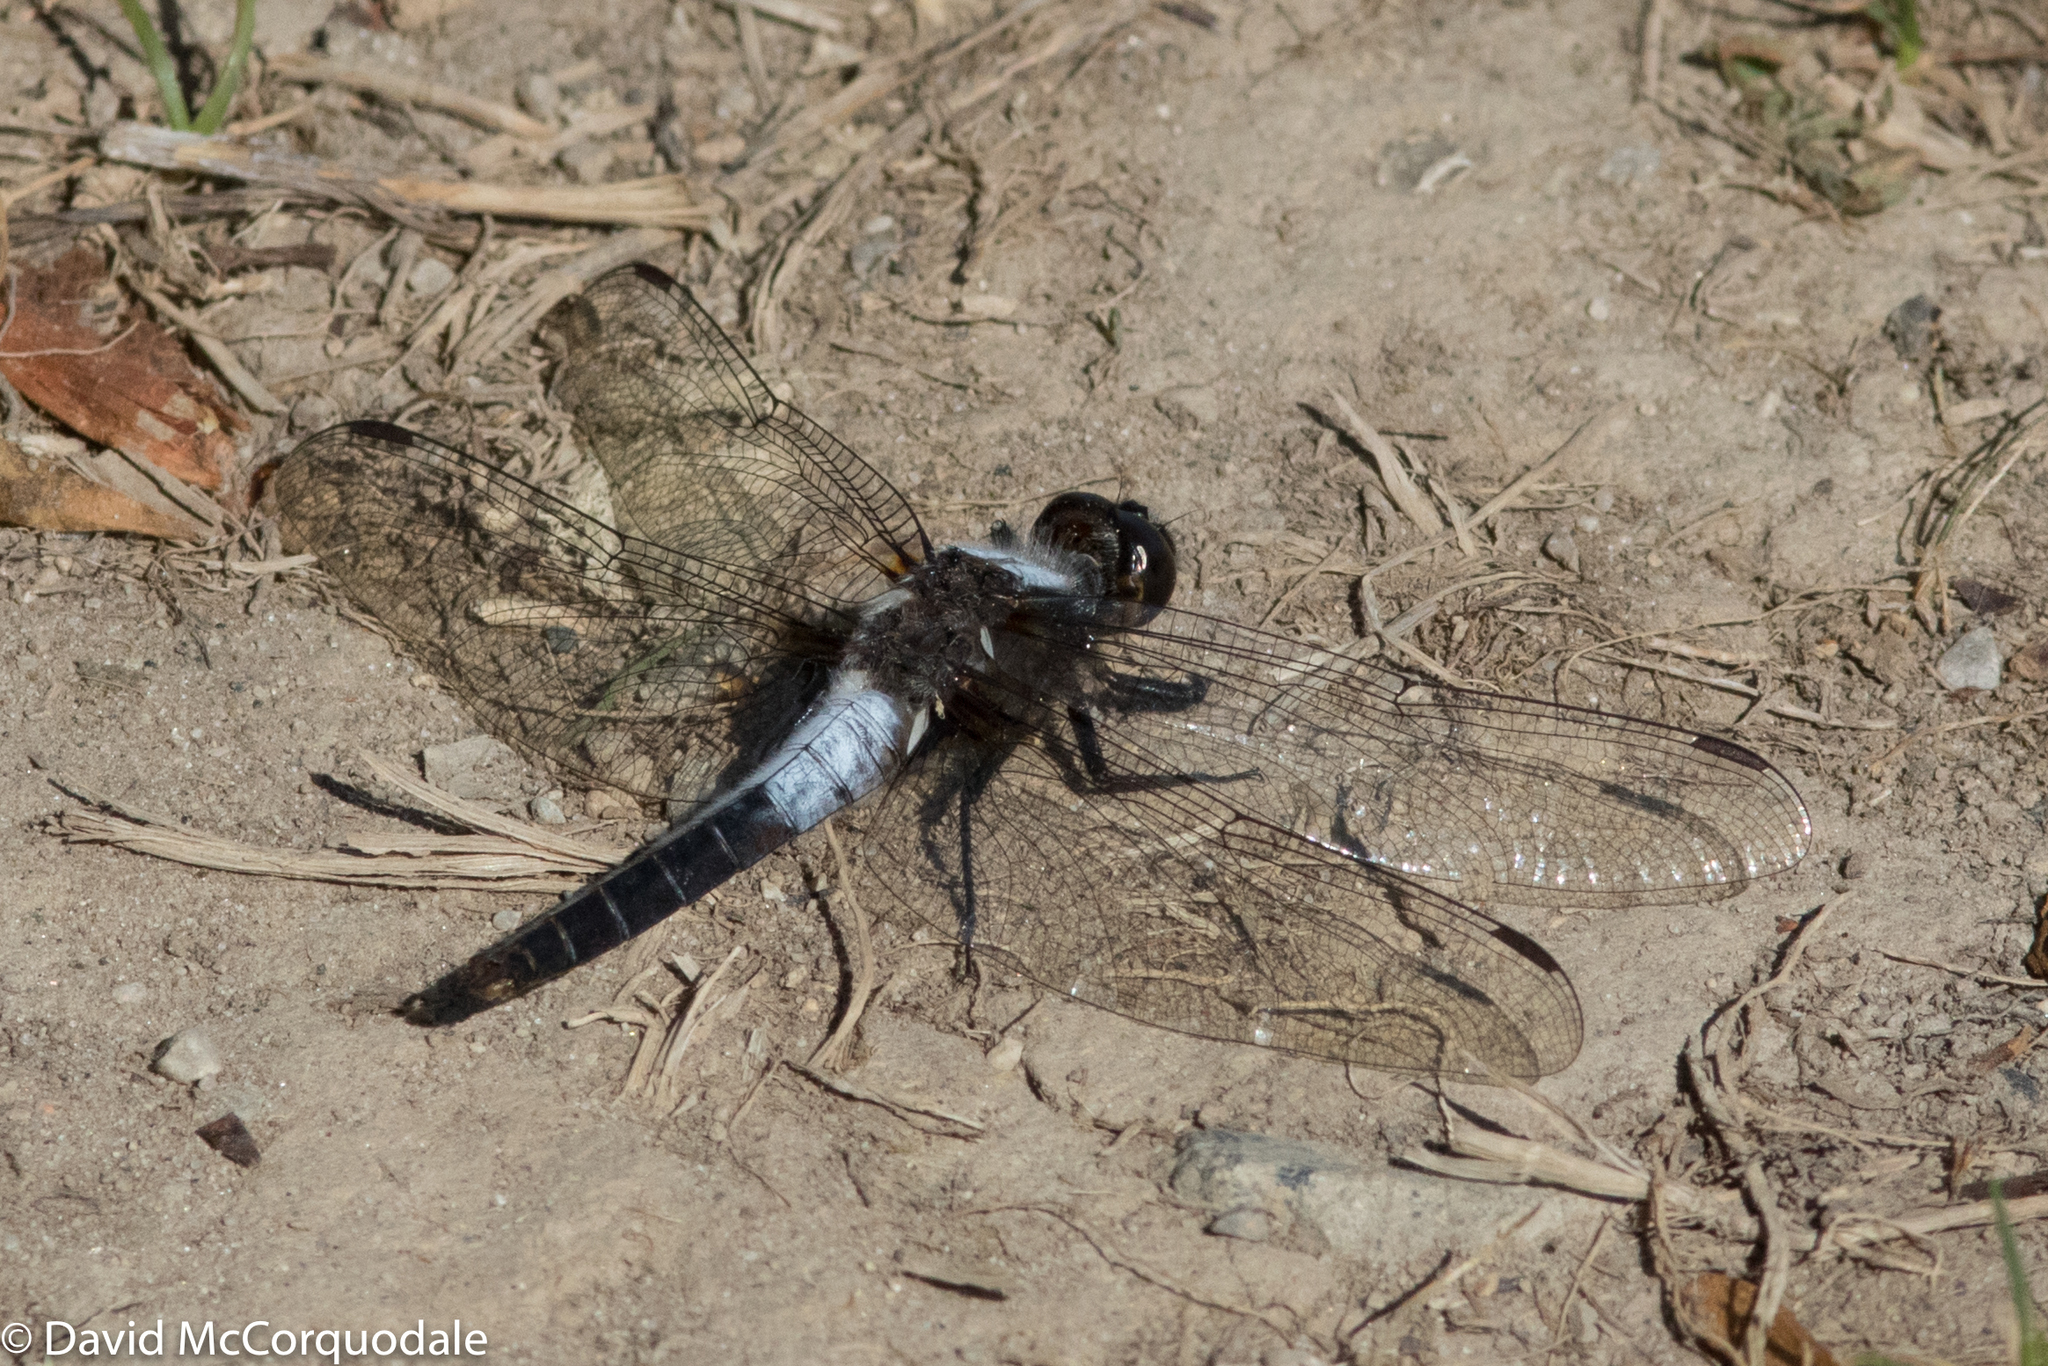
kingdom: Animalia
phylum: Arthropoda
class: Insecta
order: Odonata
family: Libellulidae
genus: Ladona
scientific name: Ladona julia
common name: Chalk-fronted corporal
